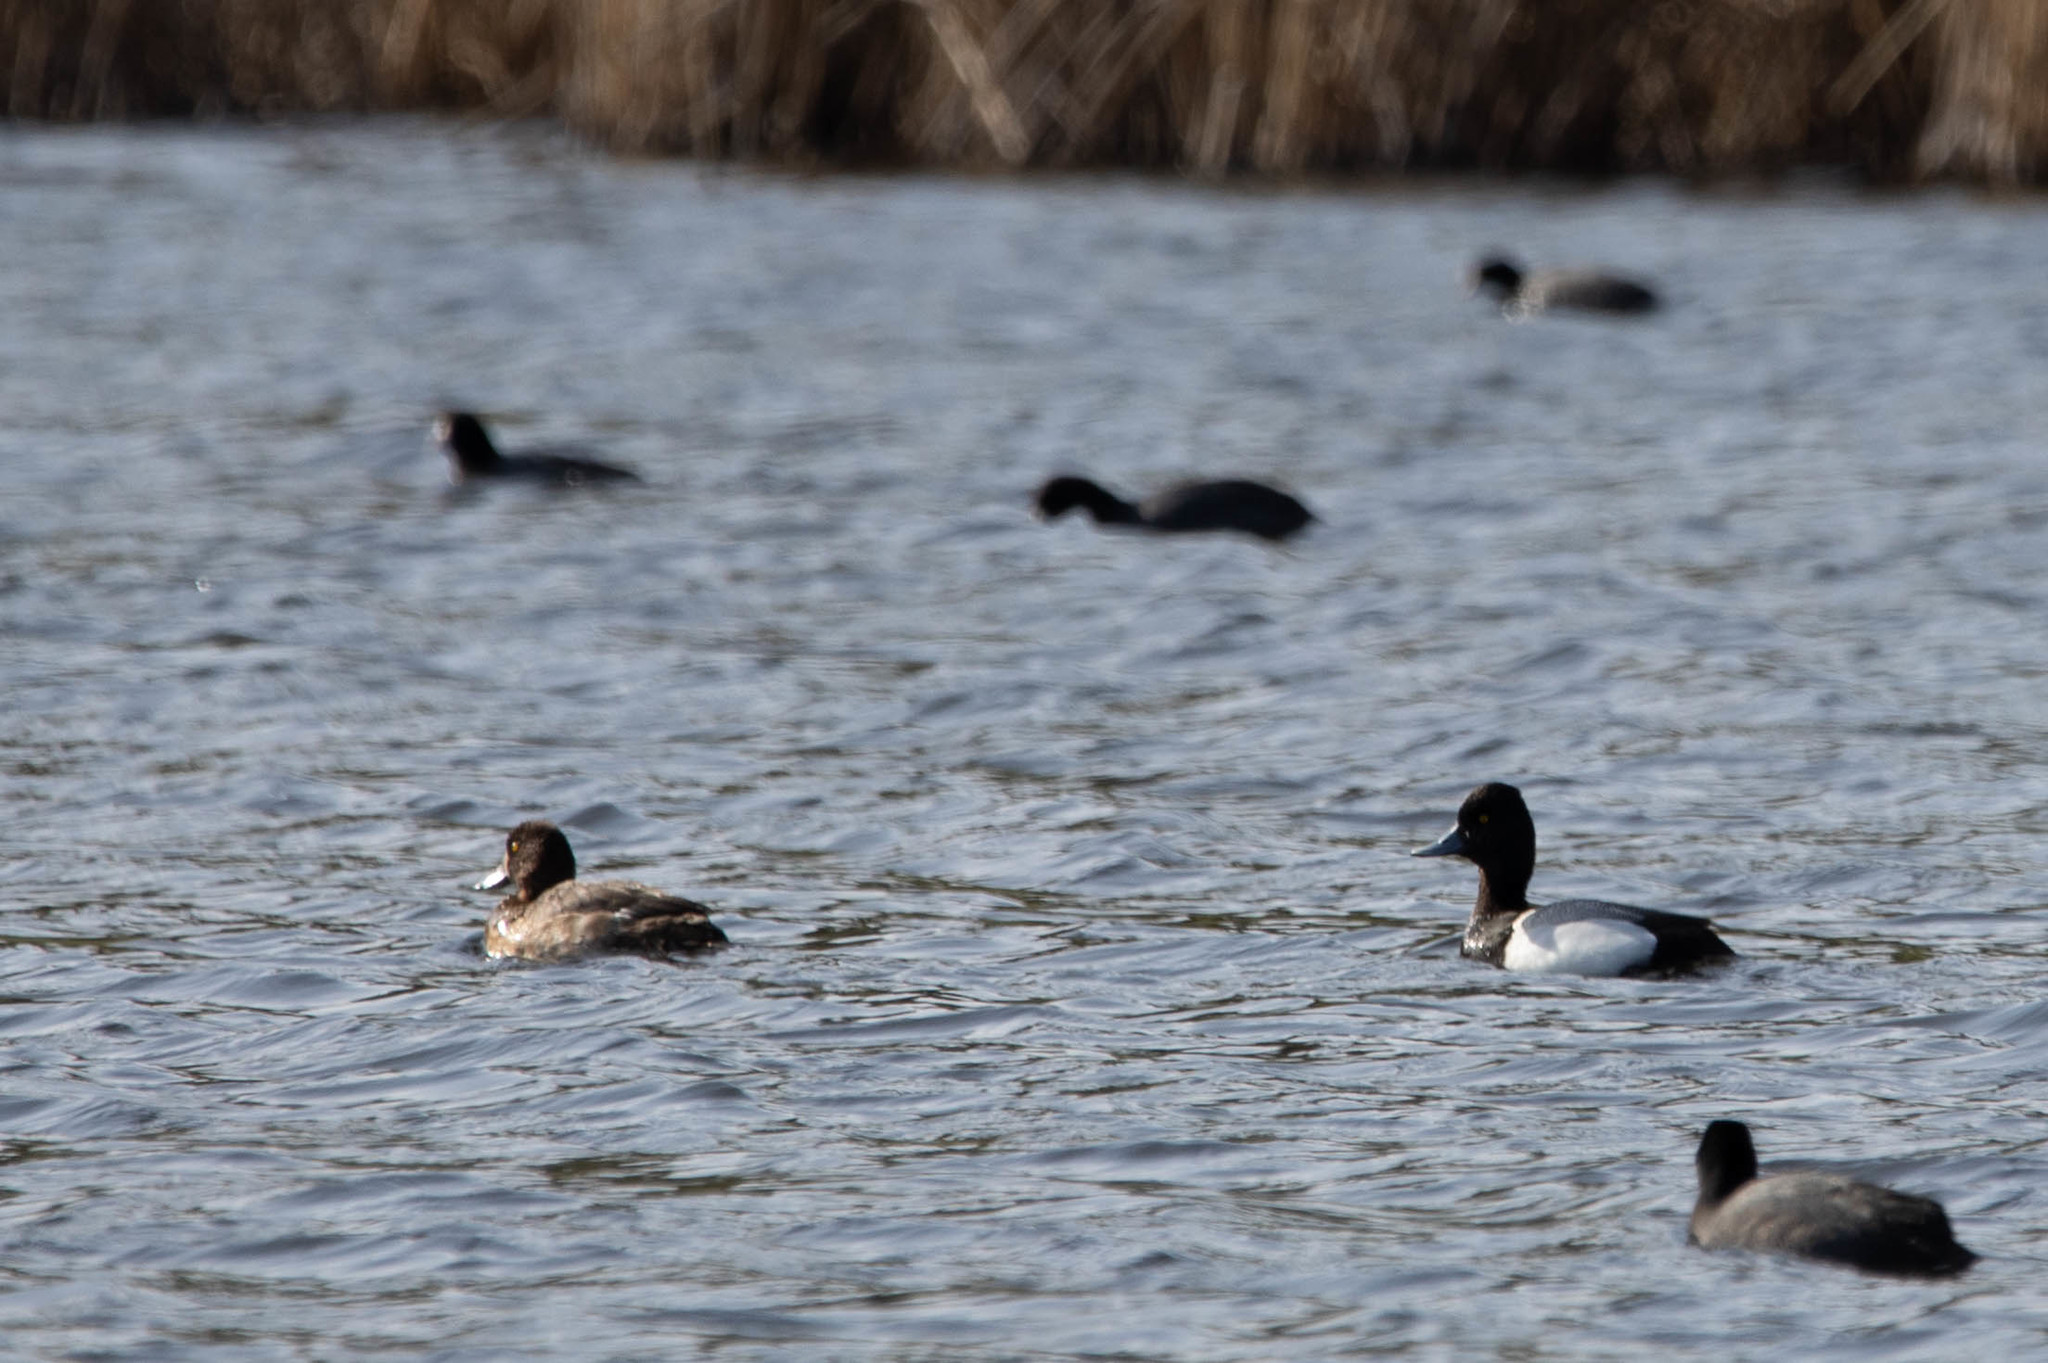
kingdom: Animalia
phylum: Chordata
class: Aves
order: Anseriformes
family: Anatidae
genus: Aythya
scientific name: Aythya affinis
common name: Lesser scaup
